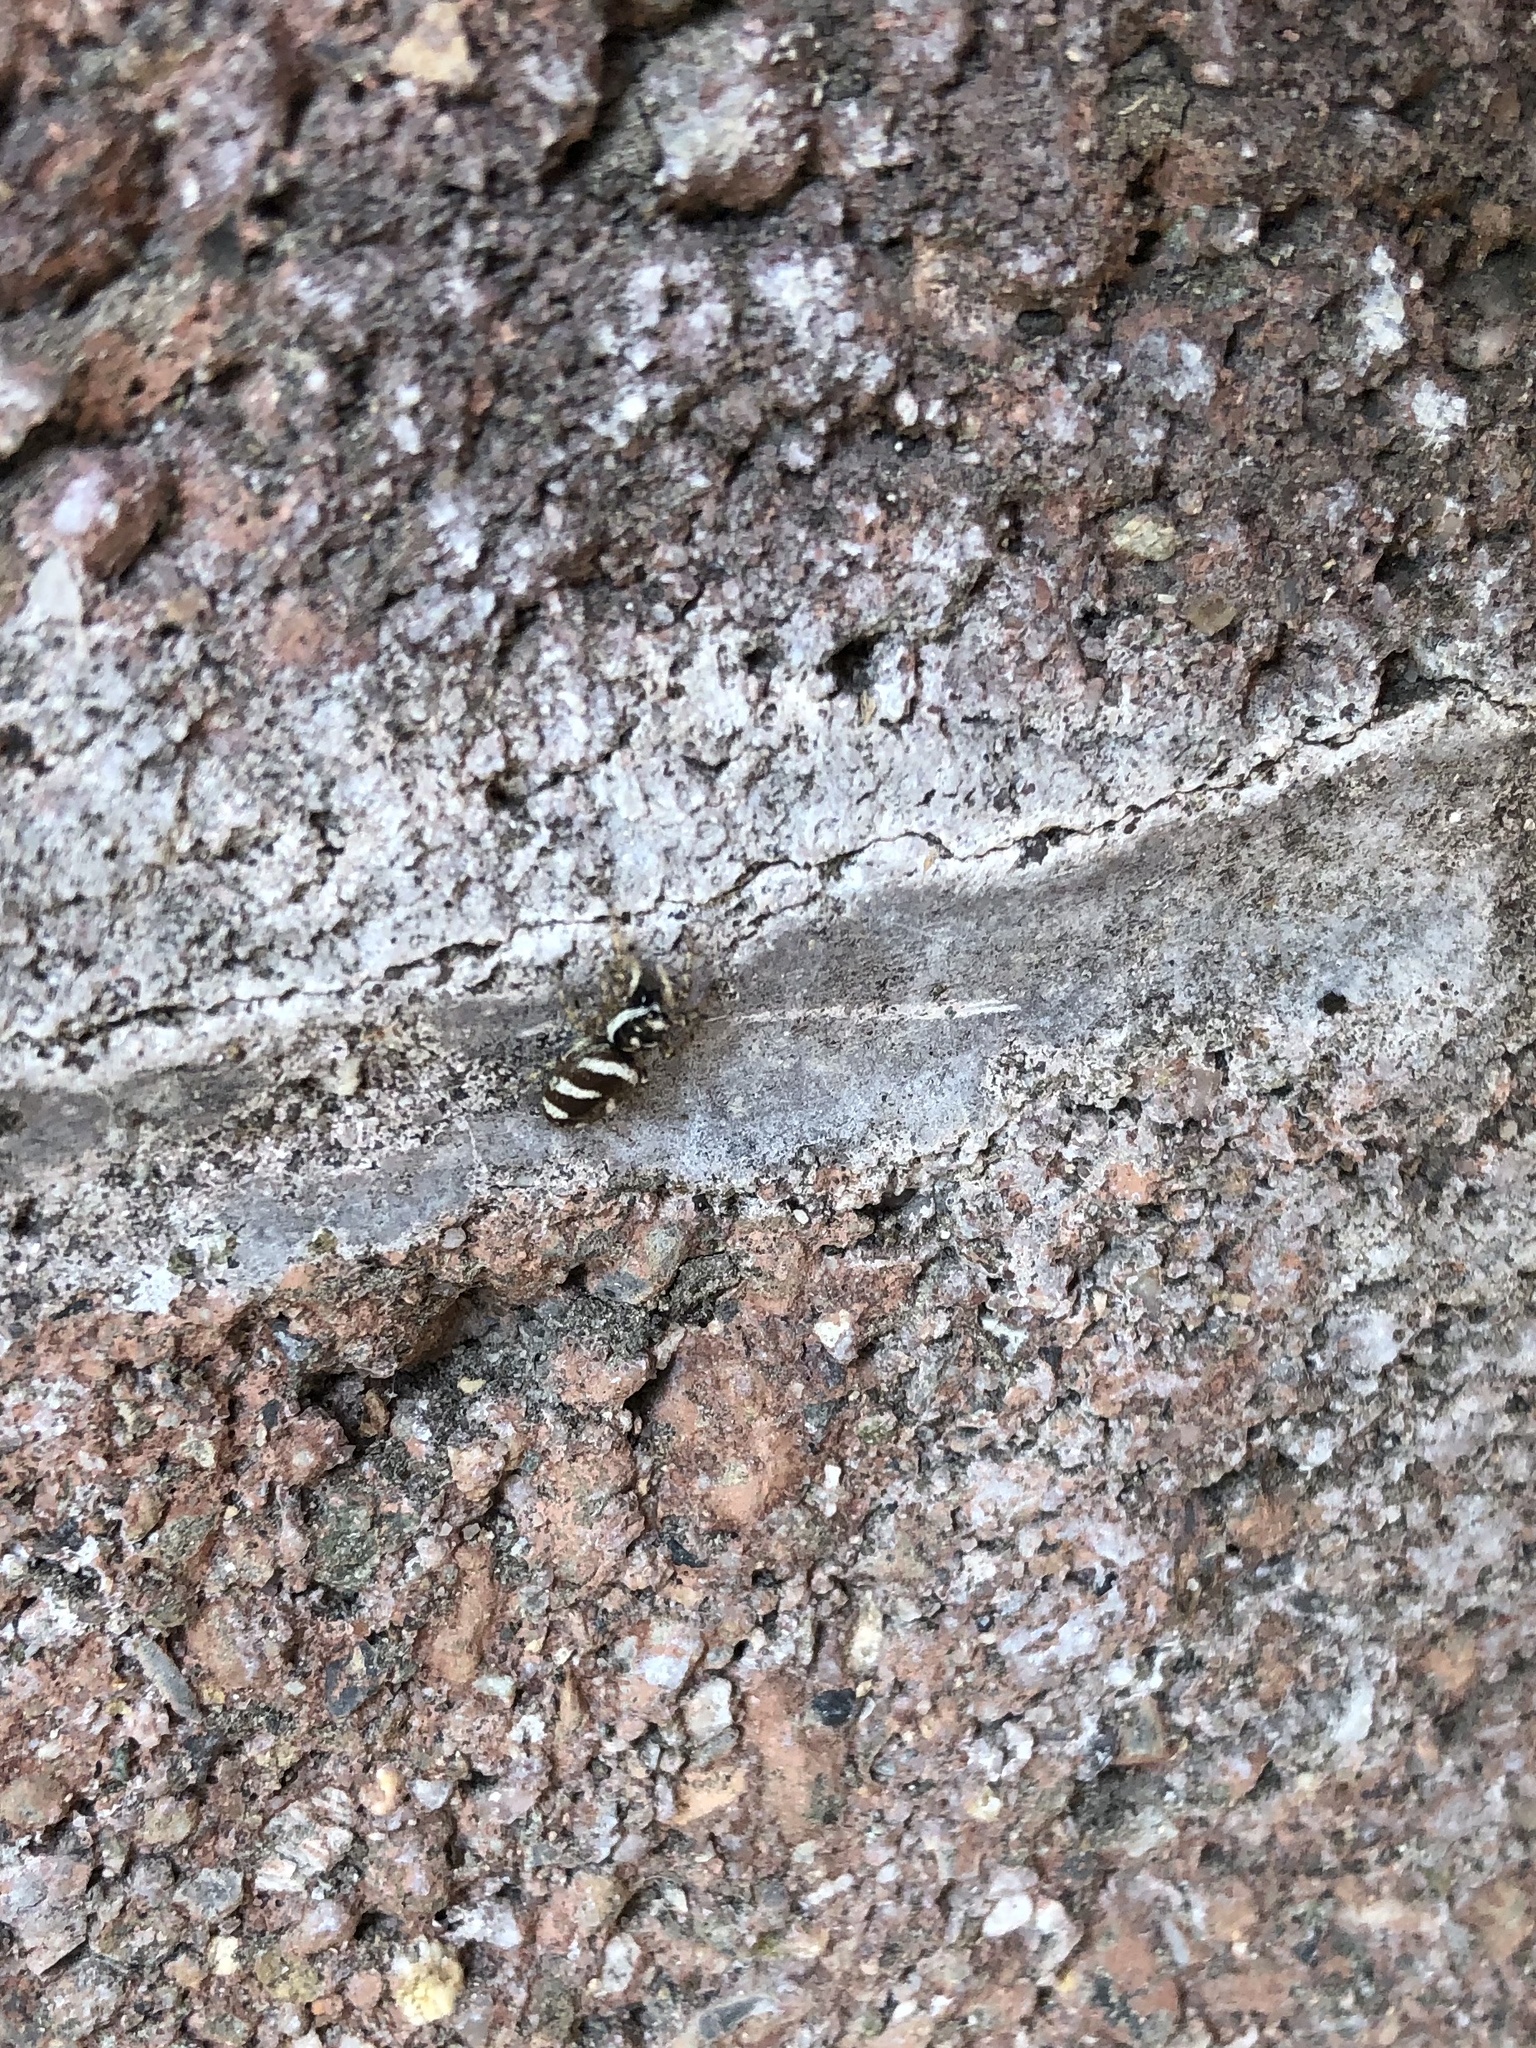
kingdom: Animalia
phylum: Arthropoda
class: Arachnida
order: Araneae
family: Salticidae
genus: Salticus
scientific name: Salticus scenicus
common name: Zebra jumper
